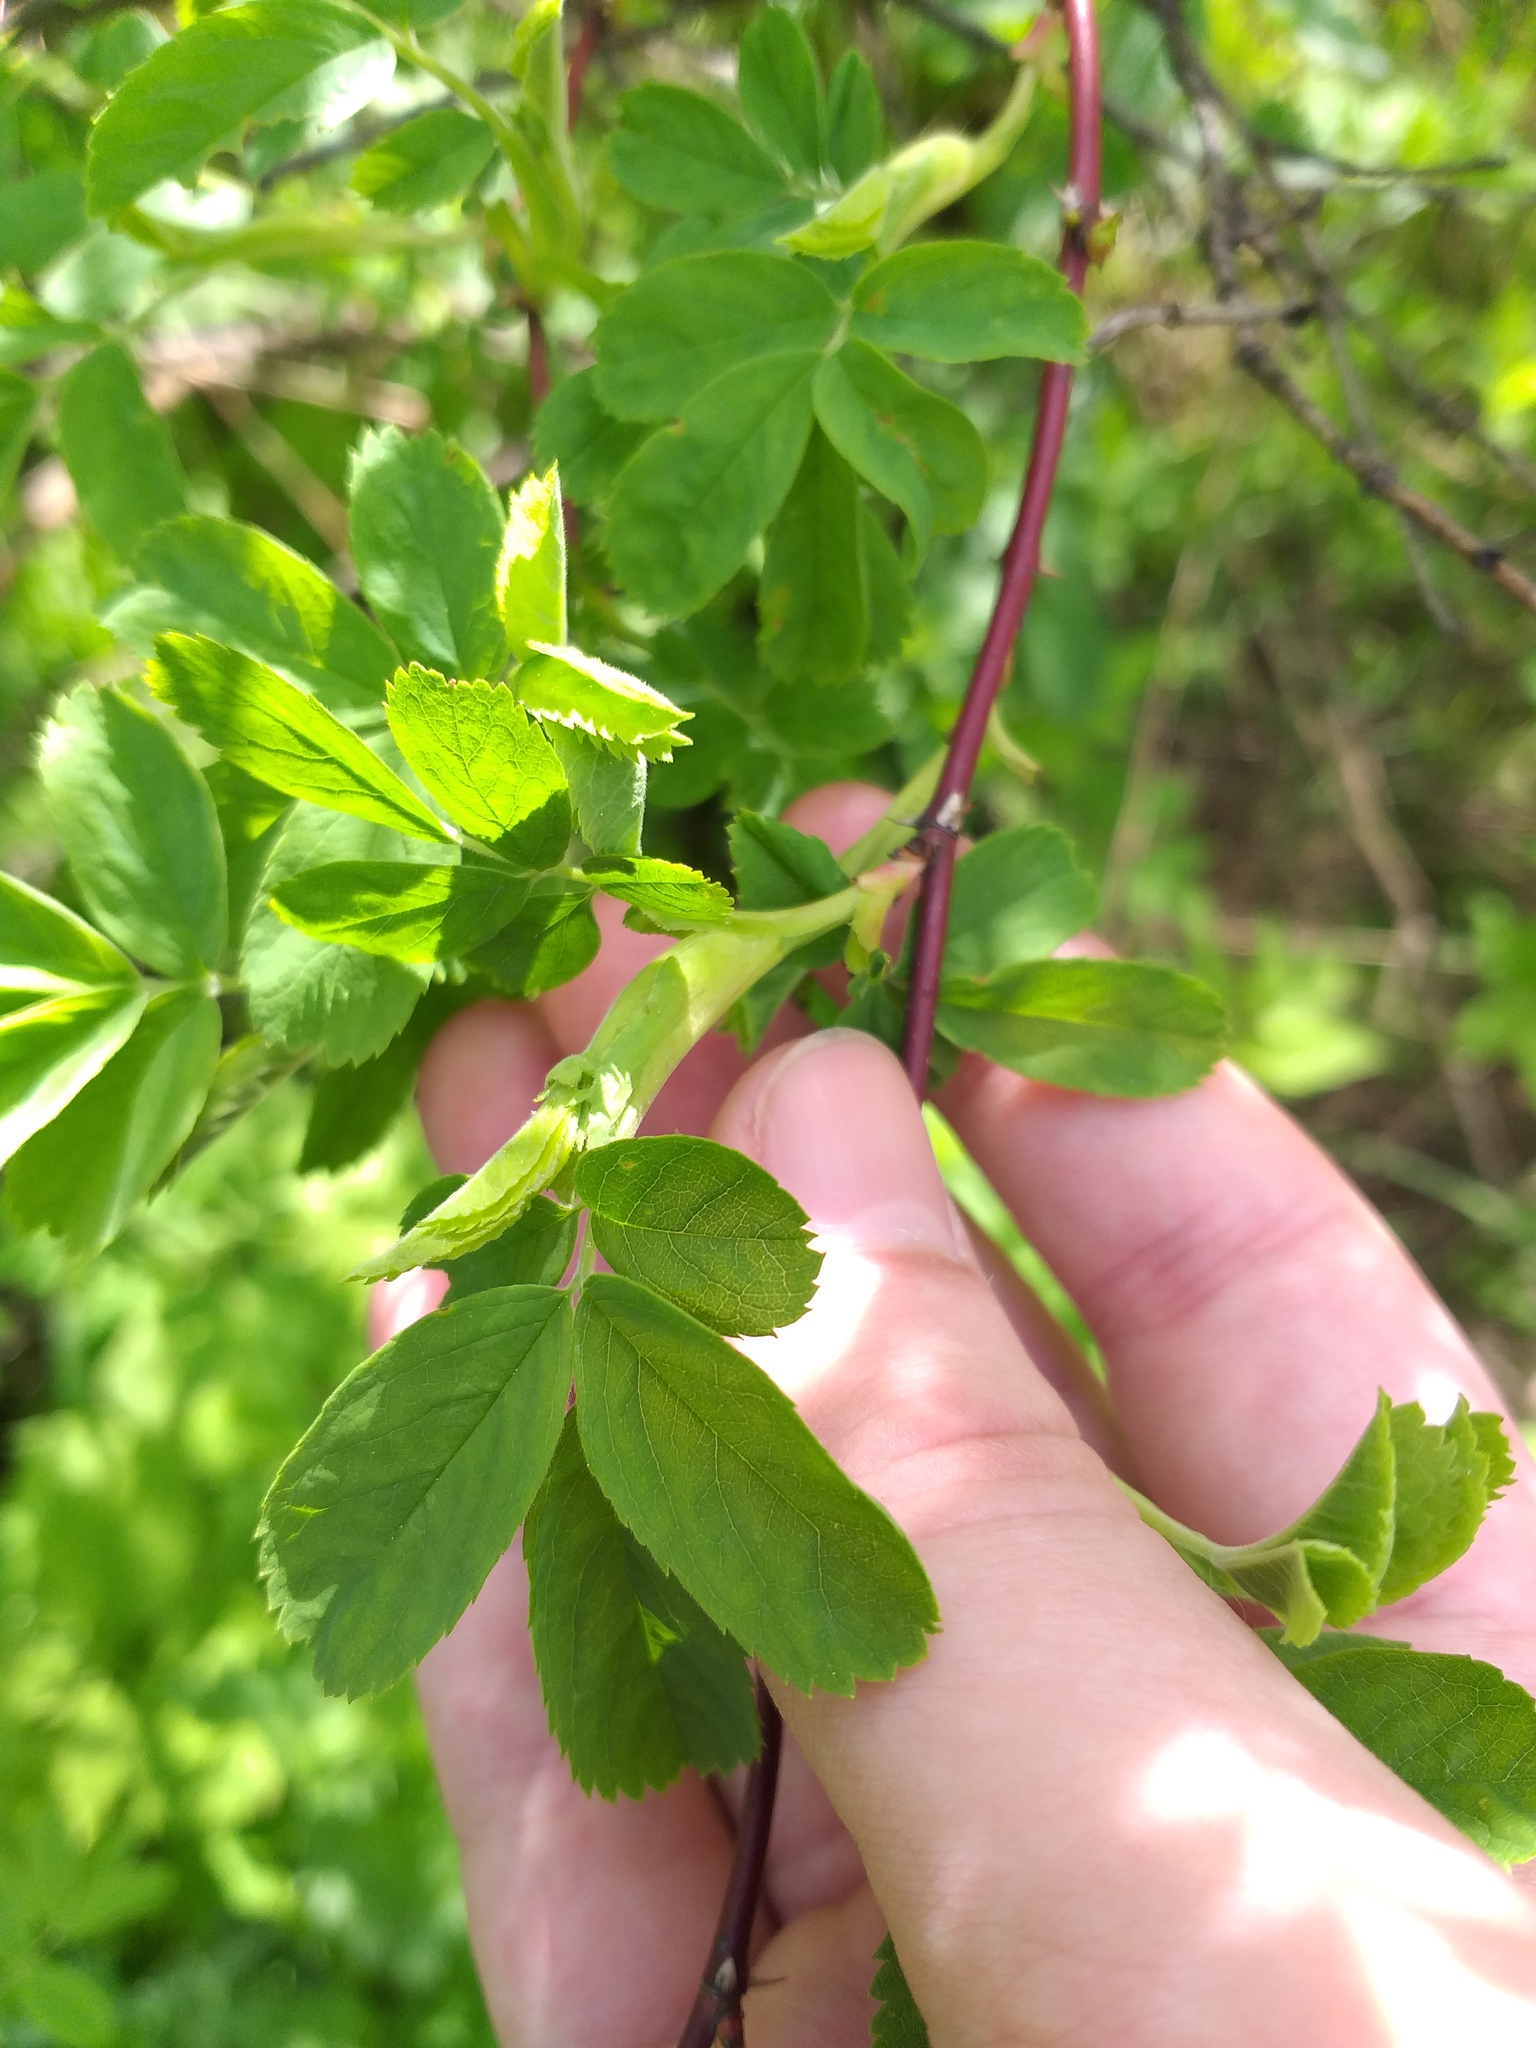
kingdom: Plantae
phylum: Tracheophyta
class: Magnoliopsida
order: Rosales
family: Rosaceae
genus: Rosa
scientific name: Rosa majalis
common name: Cinnamon rose
